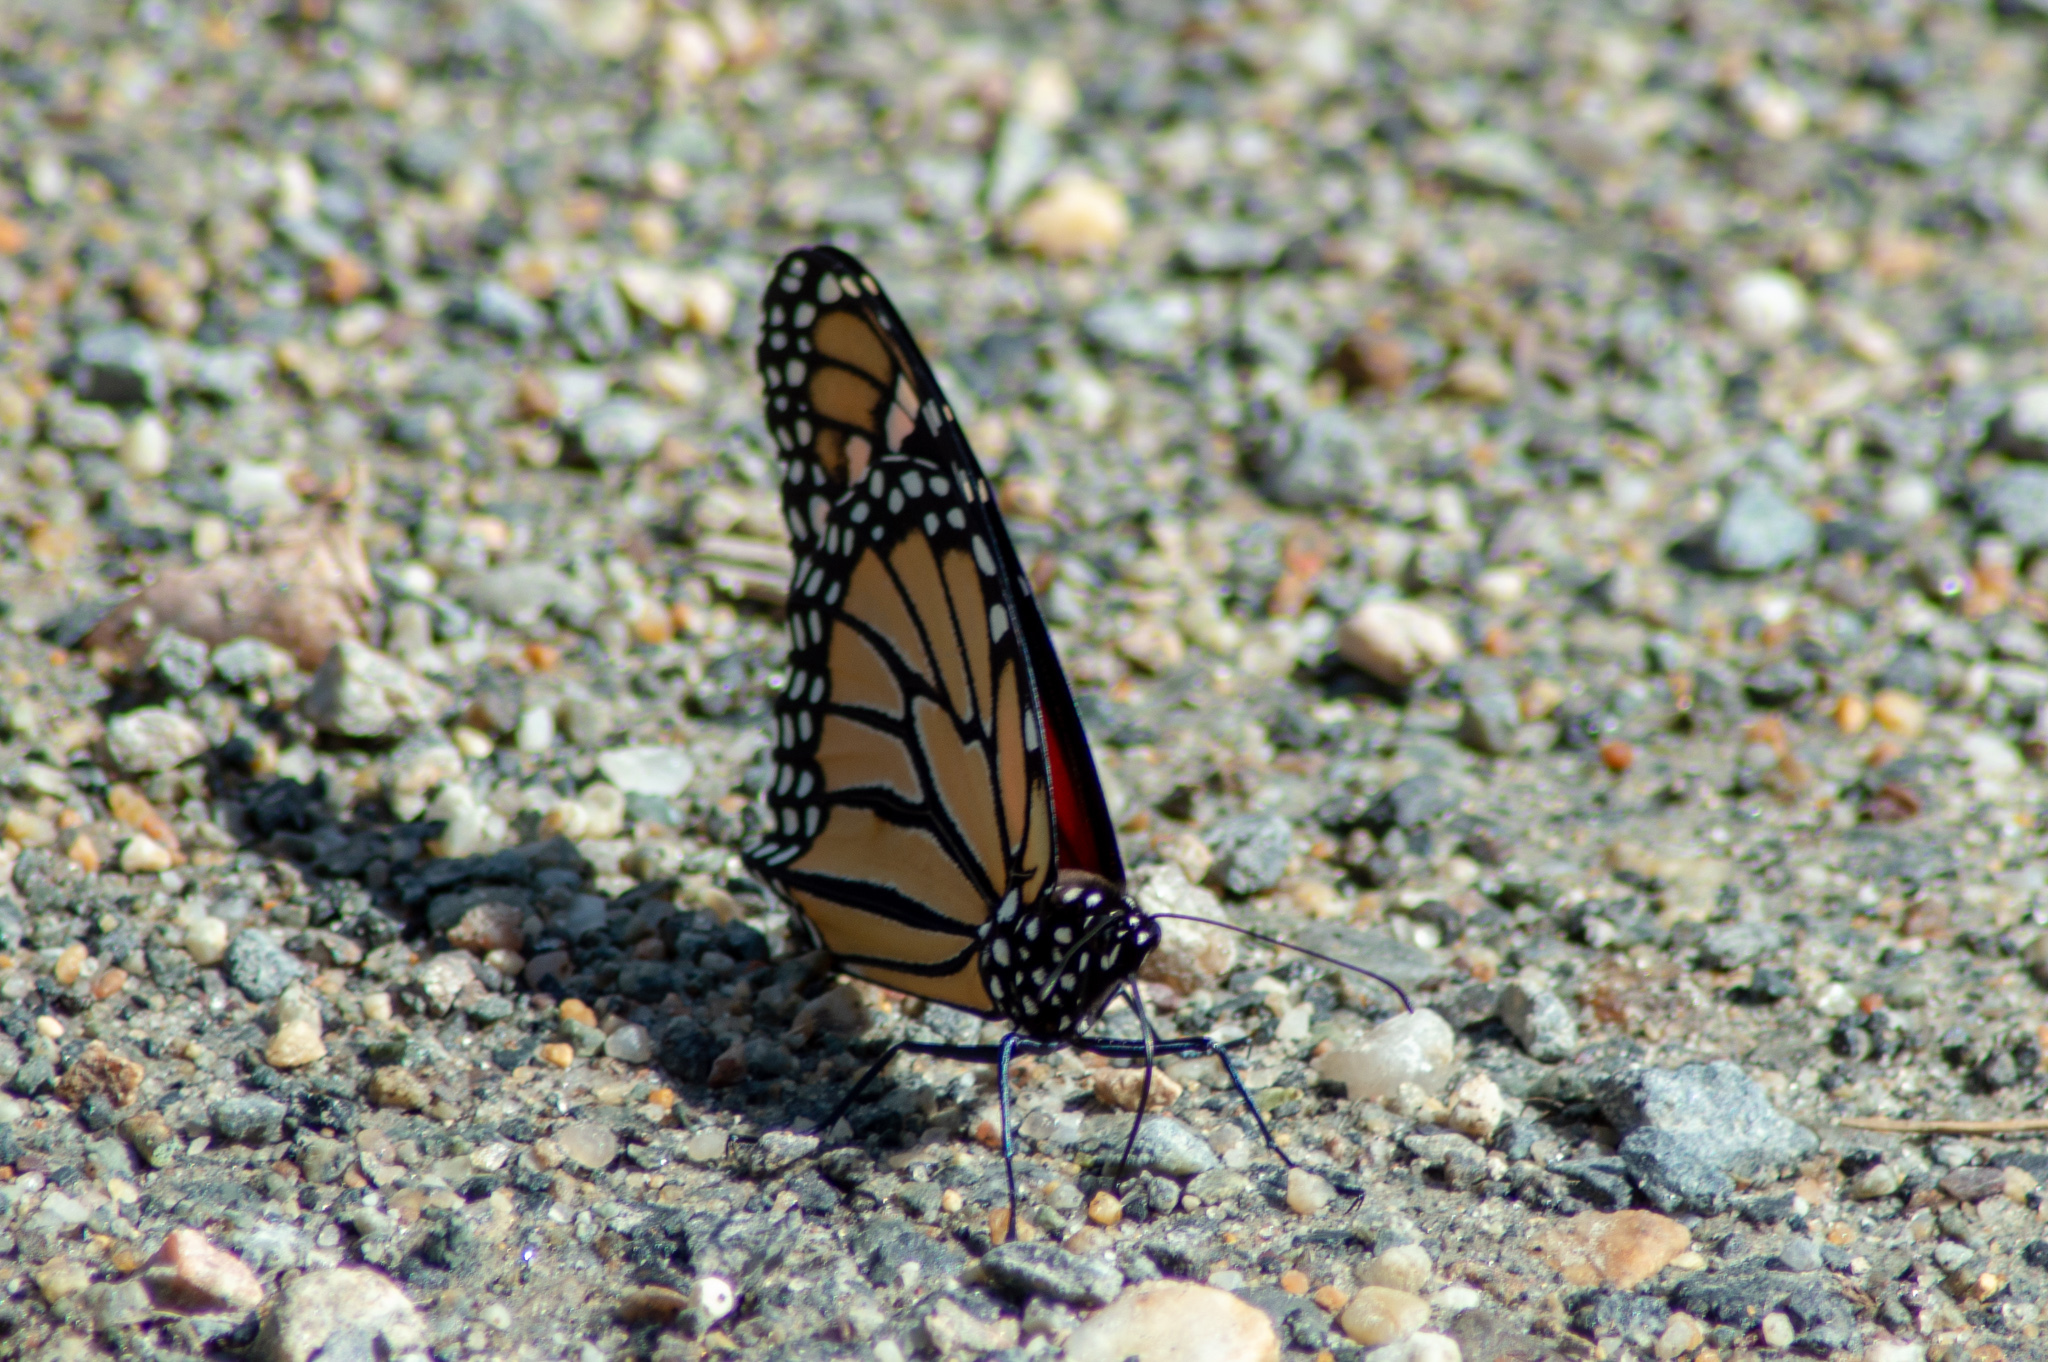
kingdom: Animalia
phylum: Arthropoda
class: Insecta
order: Lepidoptera
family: Nymphalidae
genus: Danaus
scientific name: Danaus plexippus
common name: Monarch
